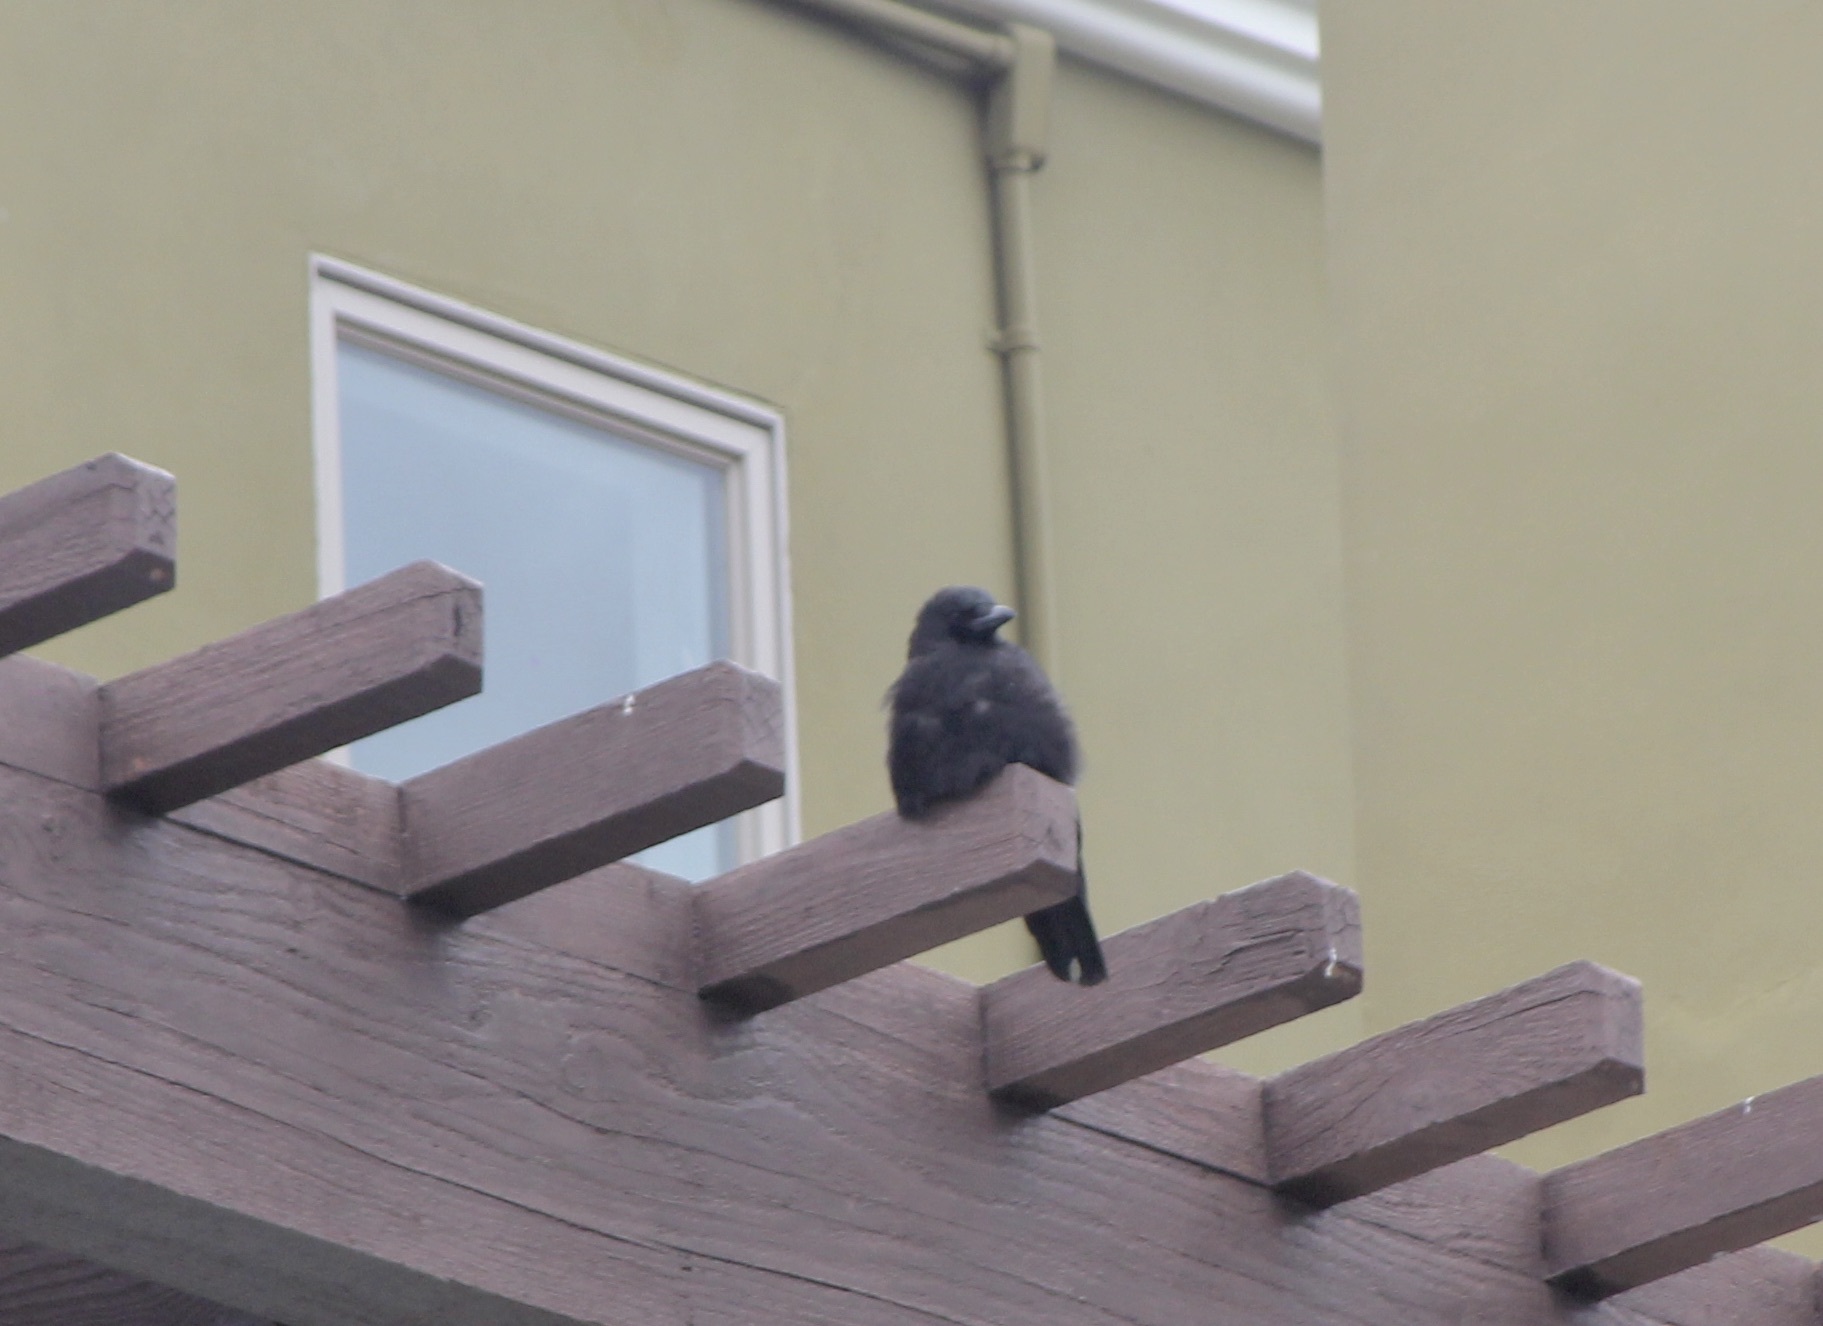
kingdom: Animalia
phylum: Chordata
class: Aves
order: Passeriformes
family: Corvidae
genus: Corvus
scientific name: Corvus brachyrhynchos
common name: American crow
